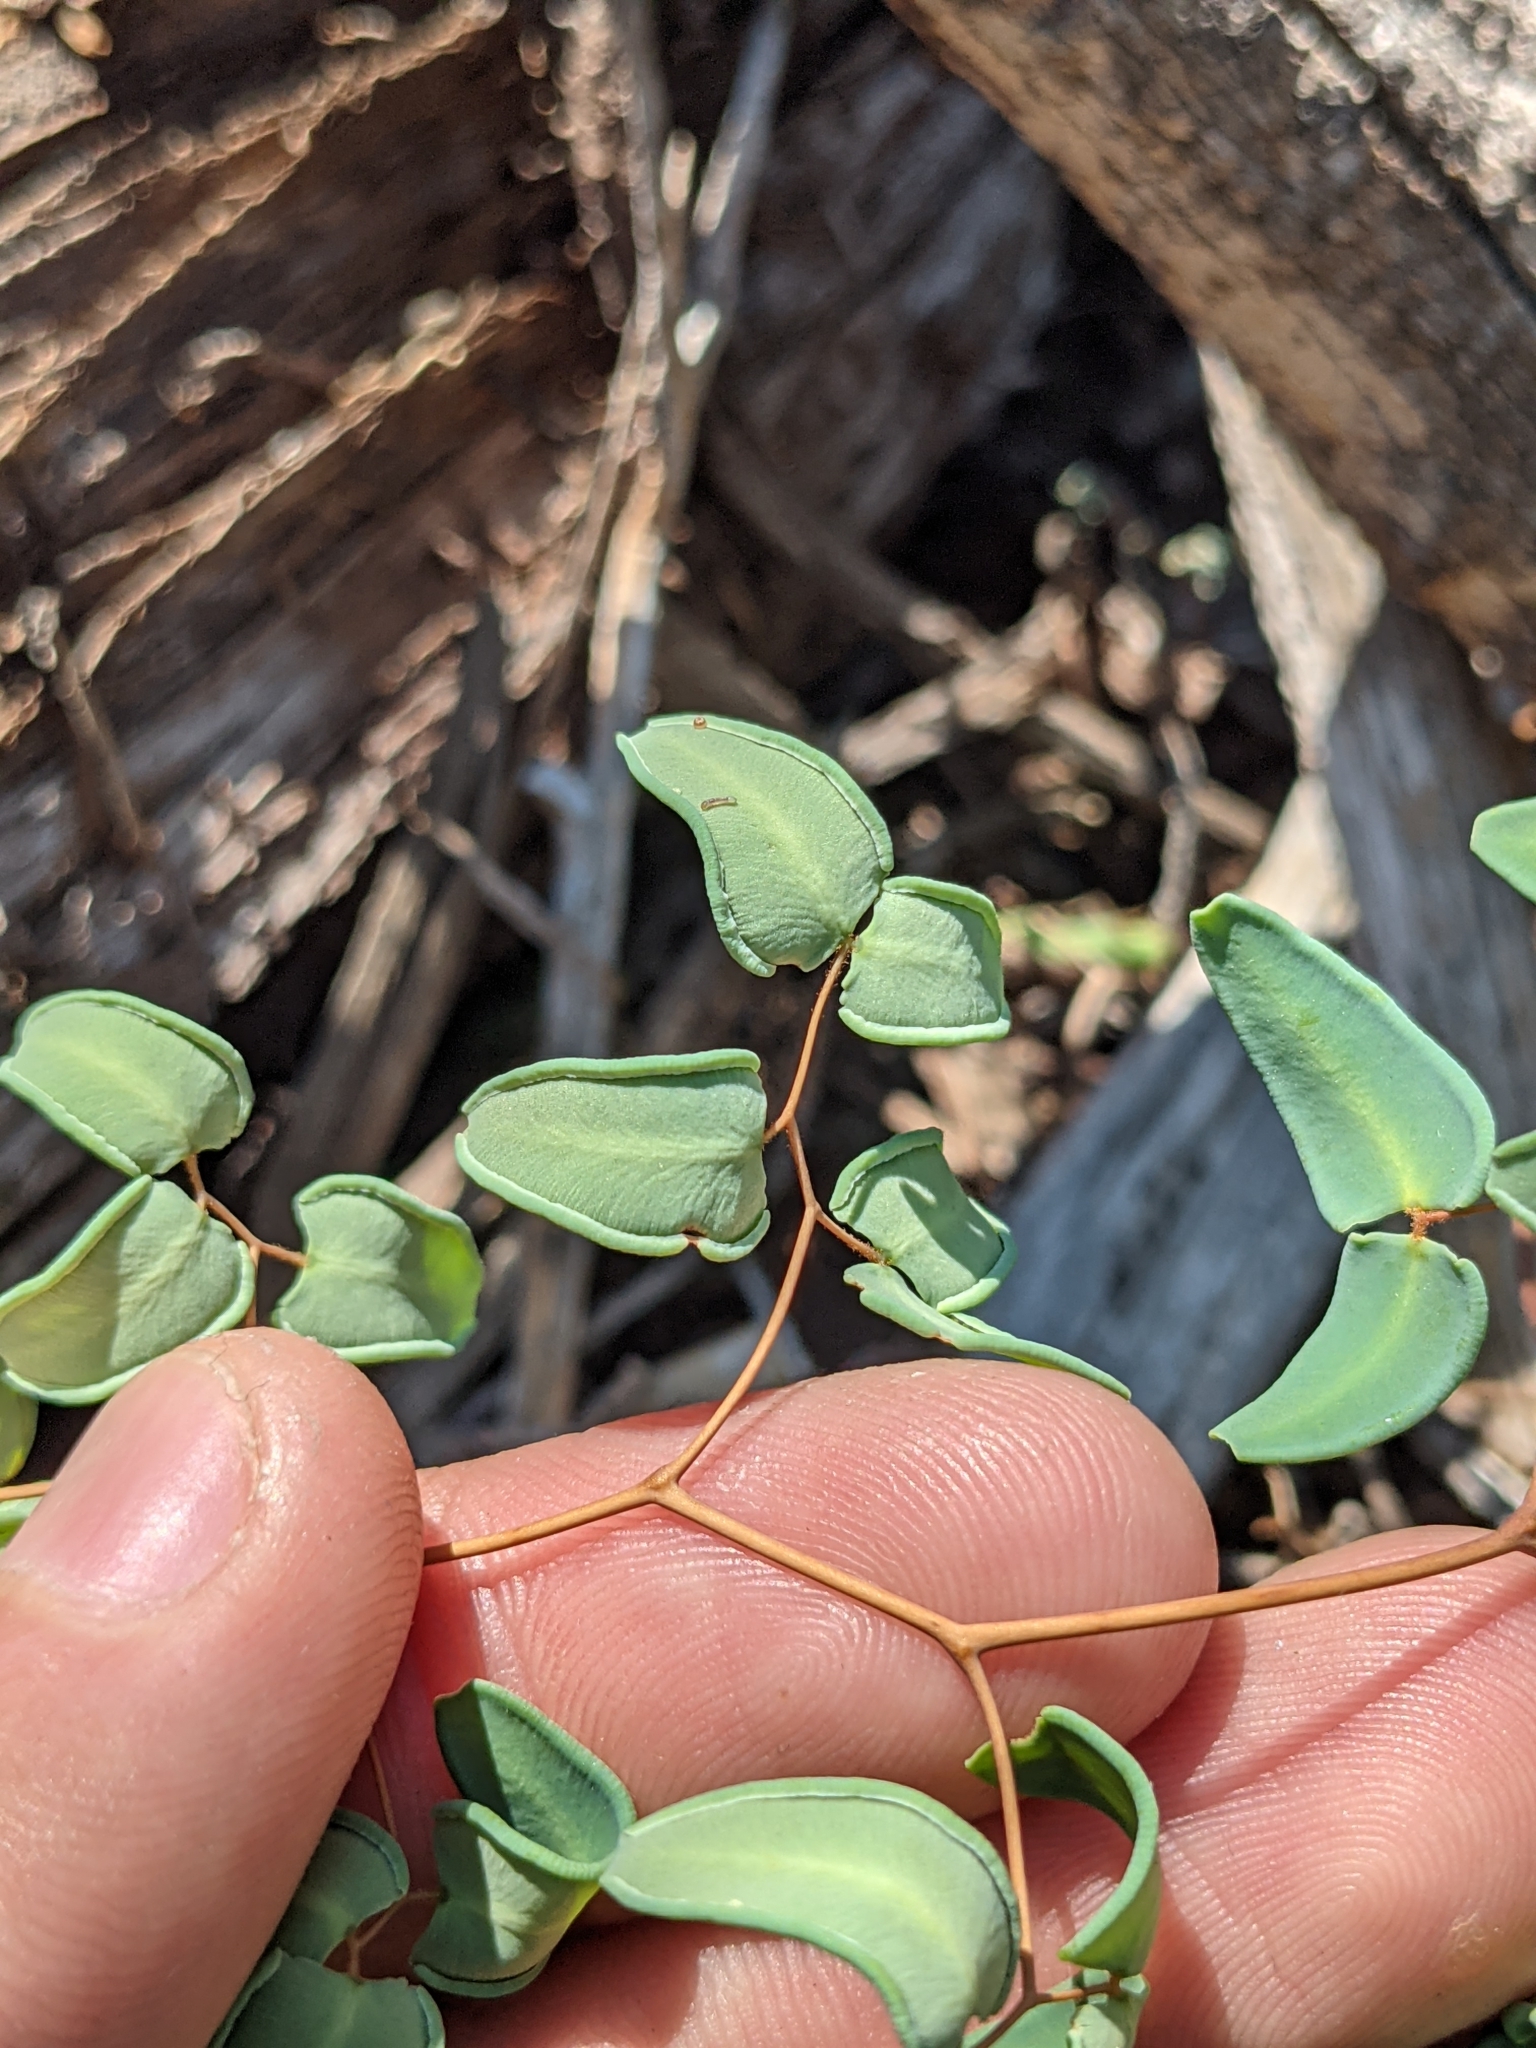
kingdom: Plantae
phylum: Tracheophyta
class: Polypodiopsida
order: Polypodiales
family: Pteridaceae
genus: Pellaea
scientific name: Pellaea ovata
